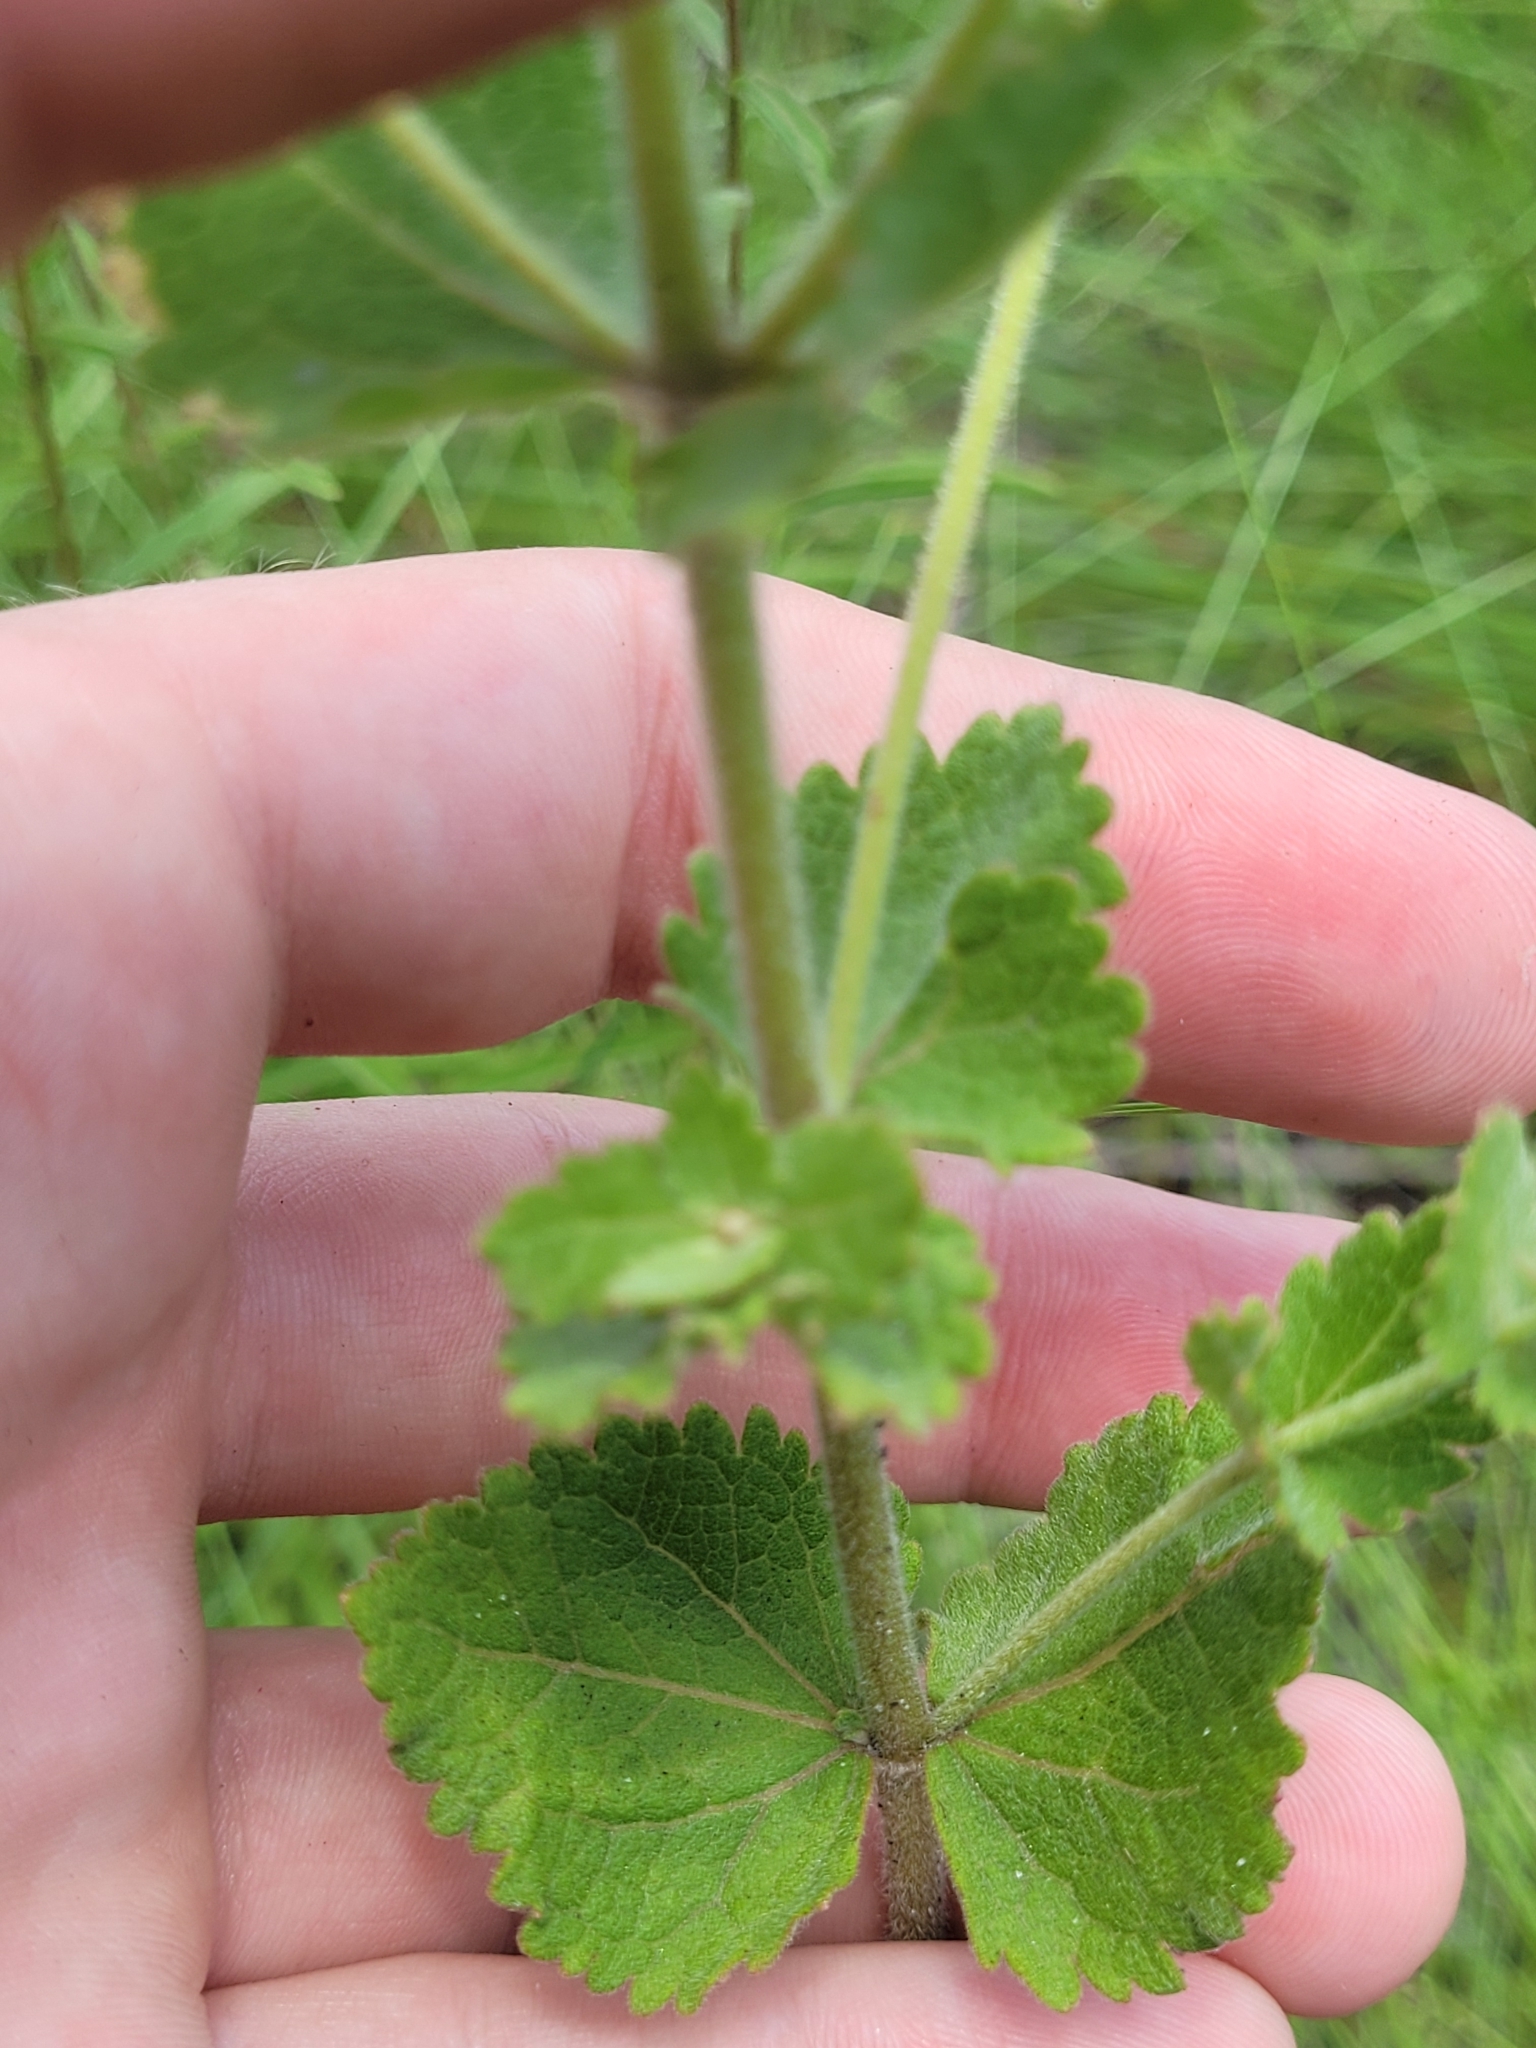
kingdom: Plantae
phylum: Tracheophyta
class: Magnoliopsida
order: Asterales
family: Asteraceae
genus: Eupatorium
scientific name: Eupatorium rotundifolium
